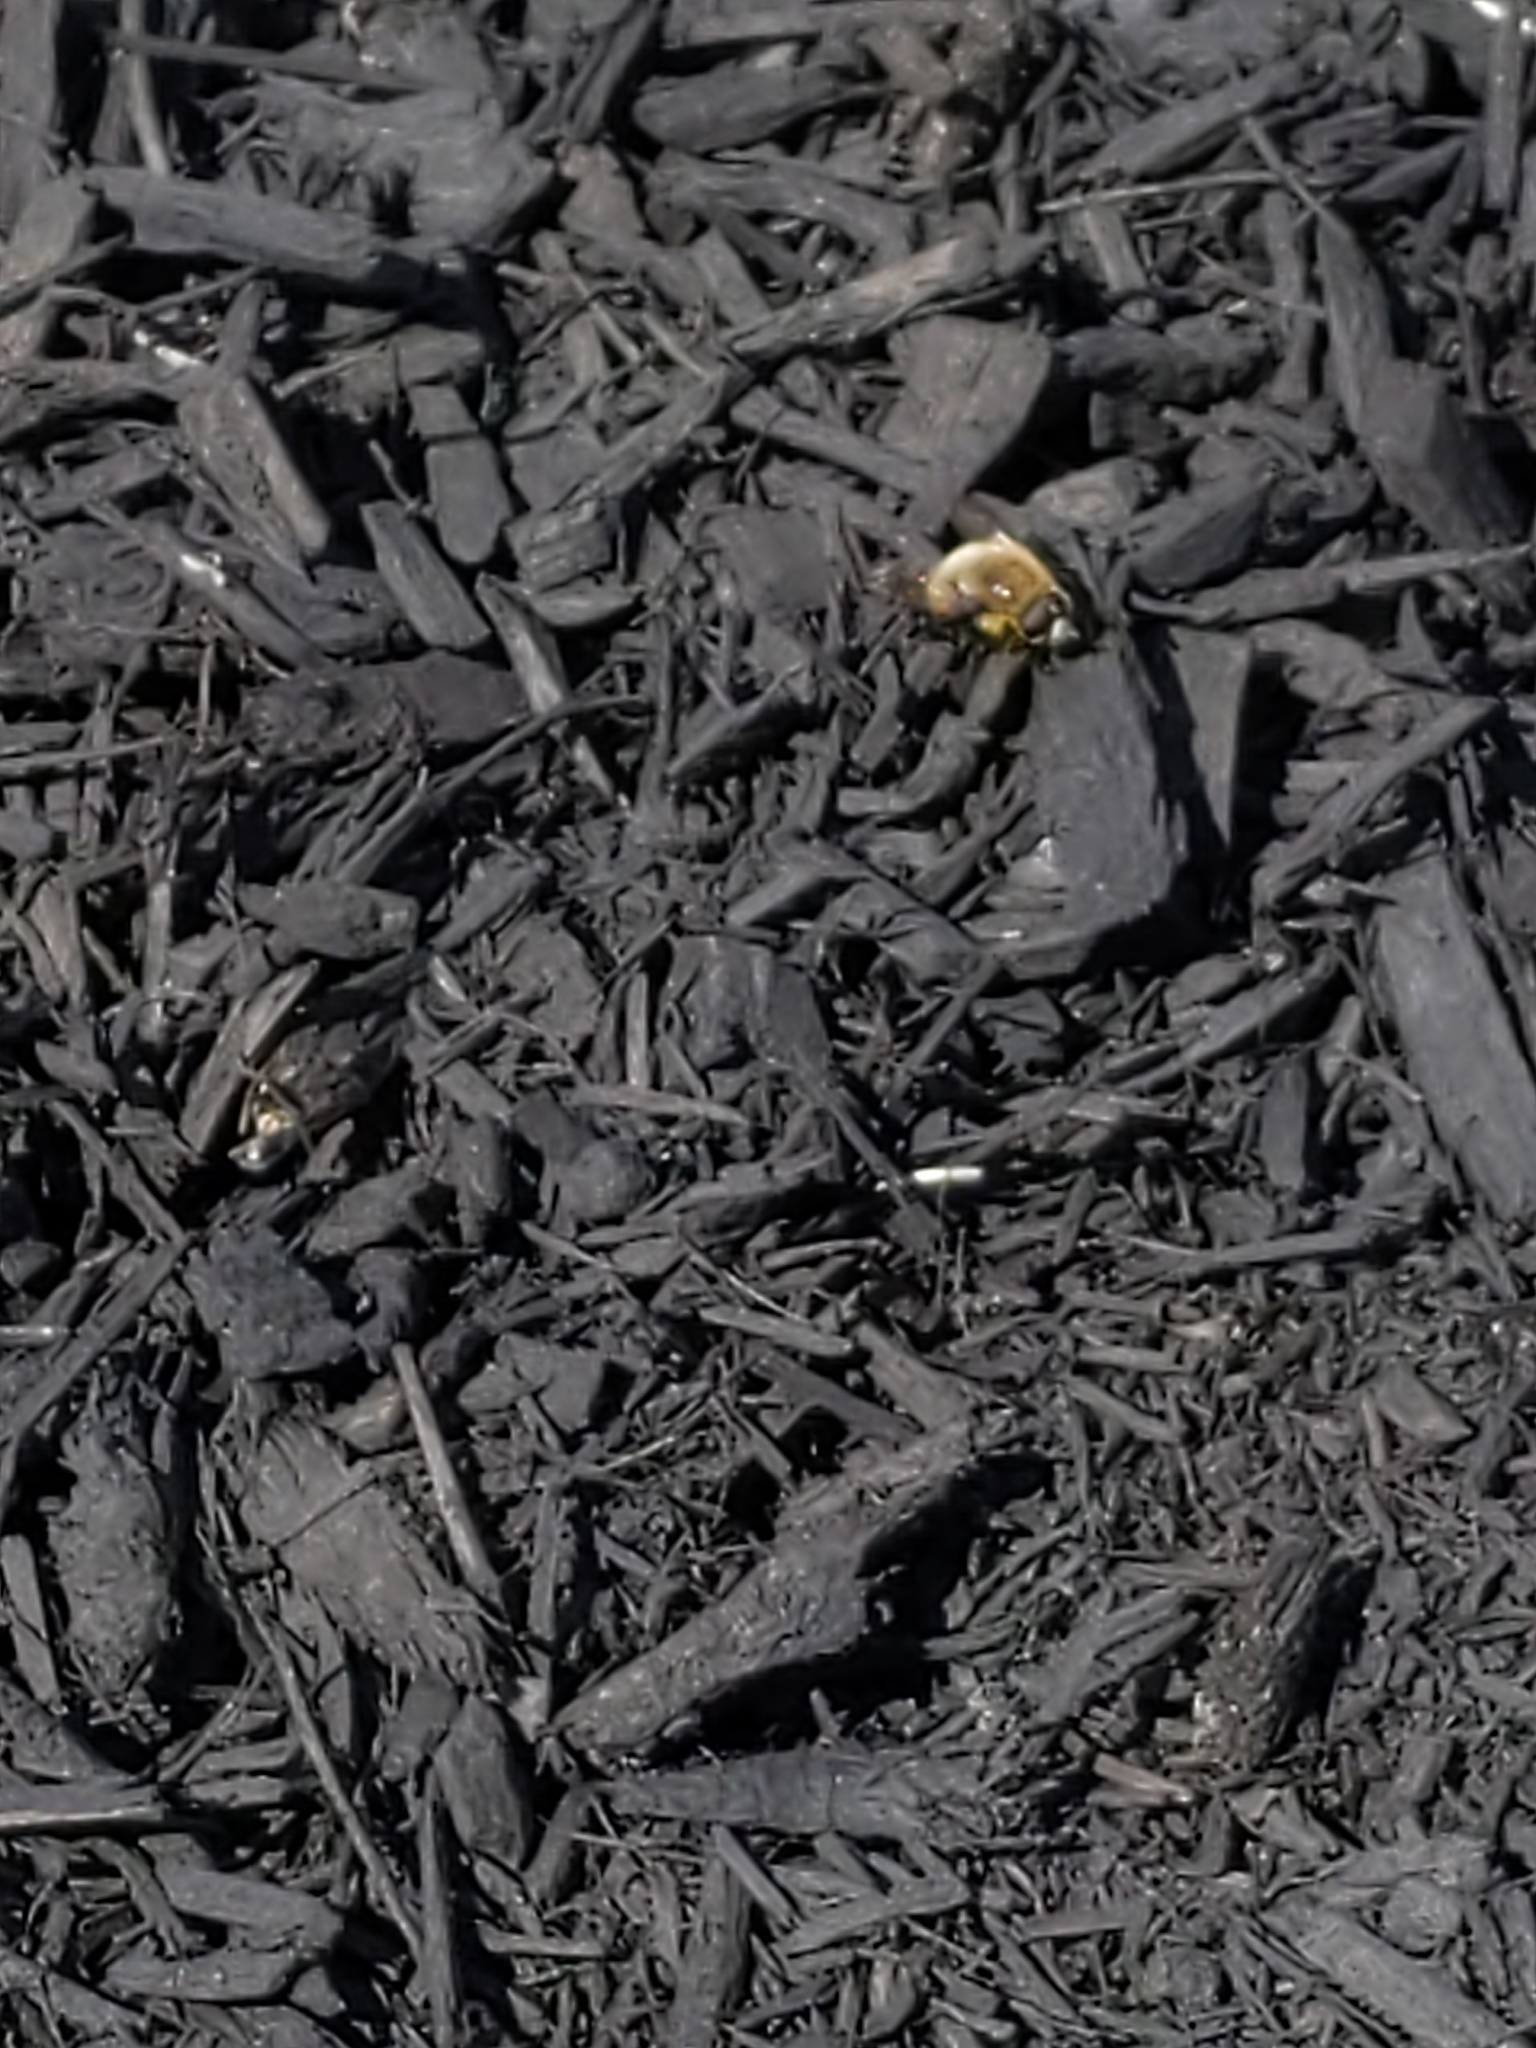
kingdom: Animalia
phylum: Arthropoda
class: Insecta
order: Diptera
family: Syrphidae
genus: Merodon
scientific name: Merodon equestris
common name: Greater bulb-fly
